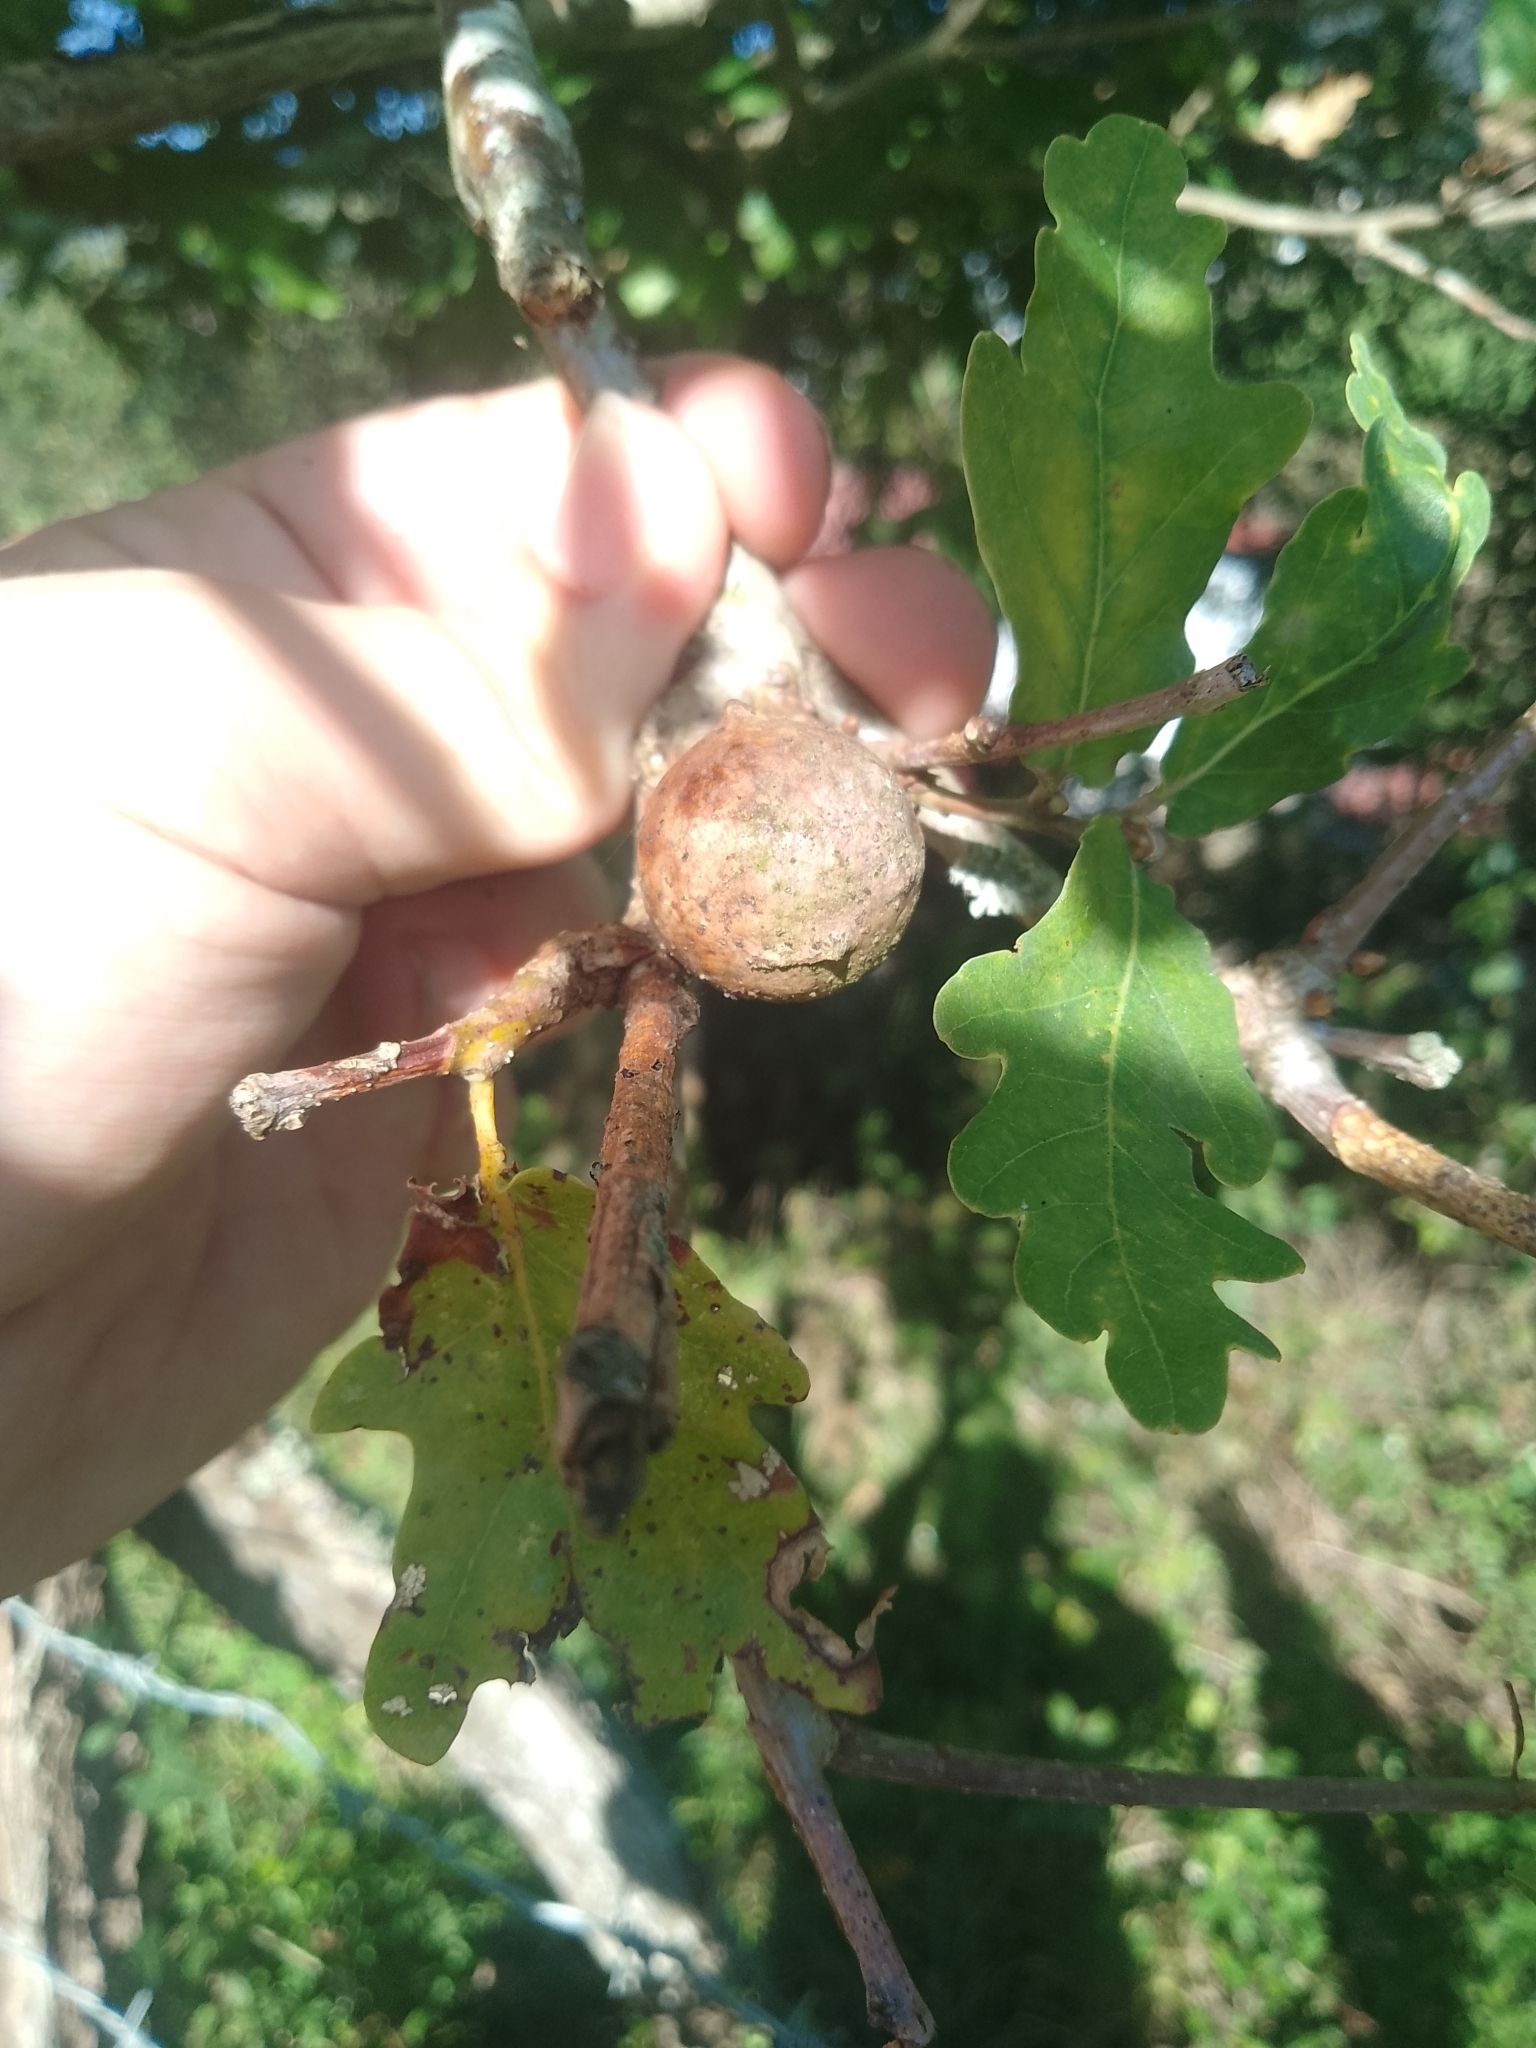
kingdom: Animalia
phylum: Arthropoda
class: Insecta
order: Hymenoptera
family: Cynipidae
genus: Andricus
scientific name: Andricus quercustozae
